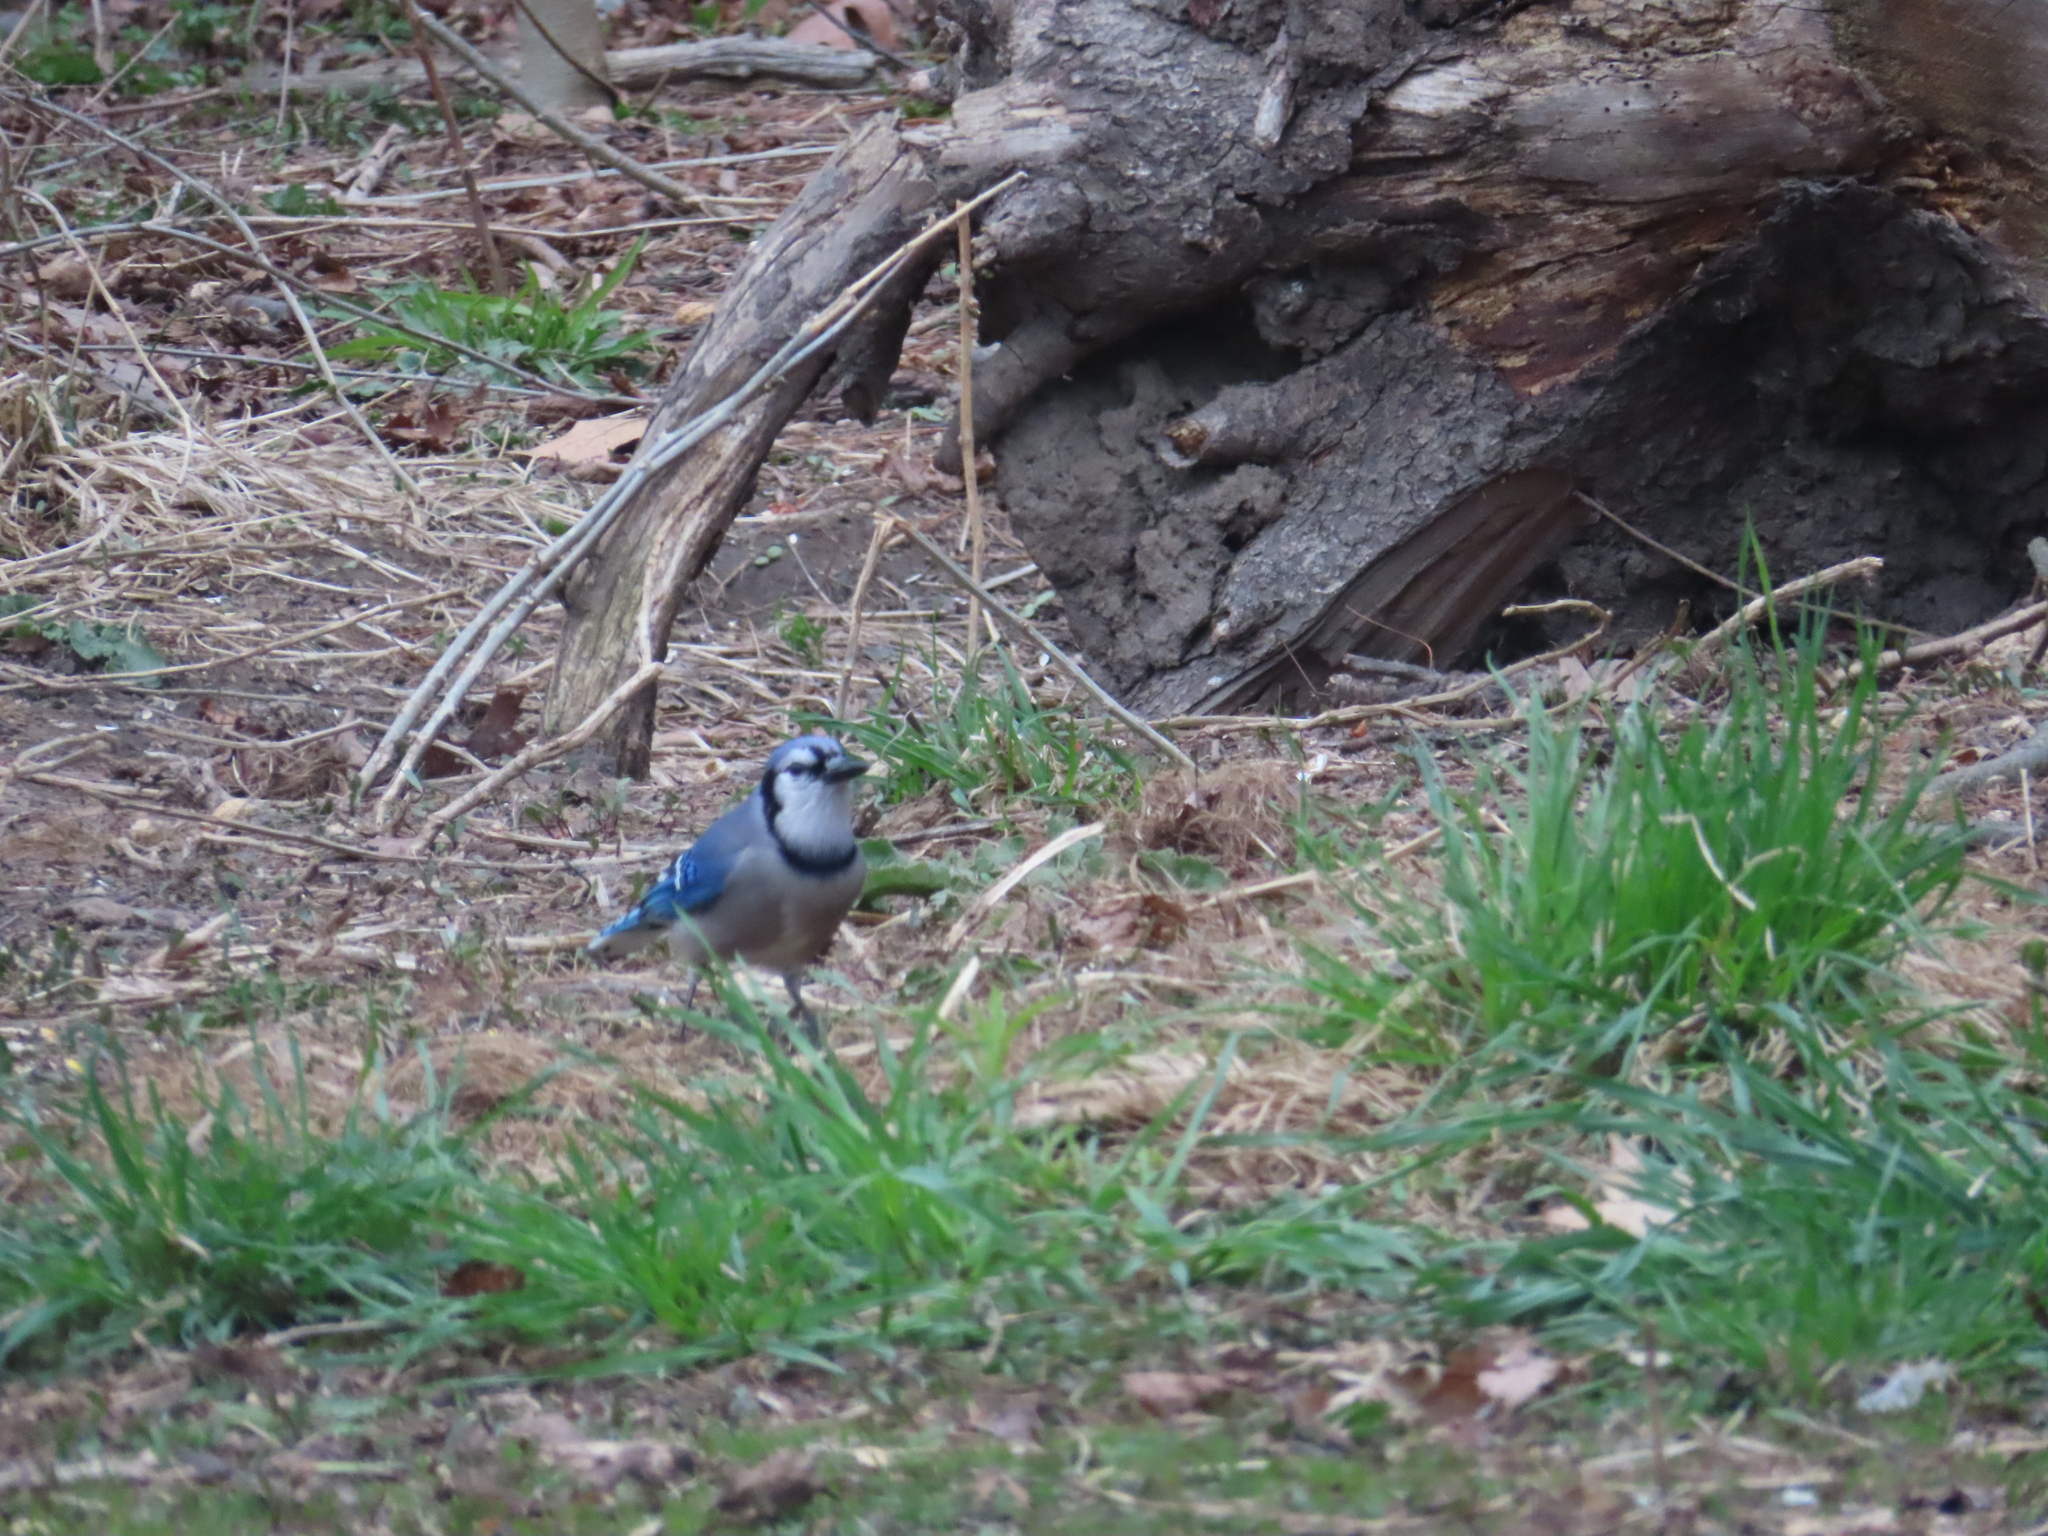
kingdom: Animalia
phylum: Chordata
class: Aves
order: Passeriformes
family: Corvidae
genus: Cyanocitta
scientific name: Cyanocitta cristata
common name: Blue jay
